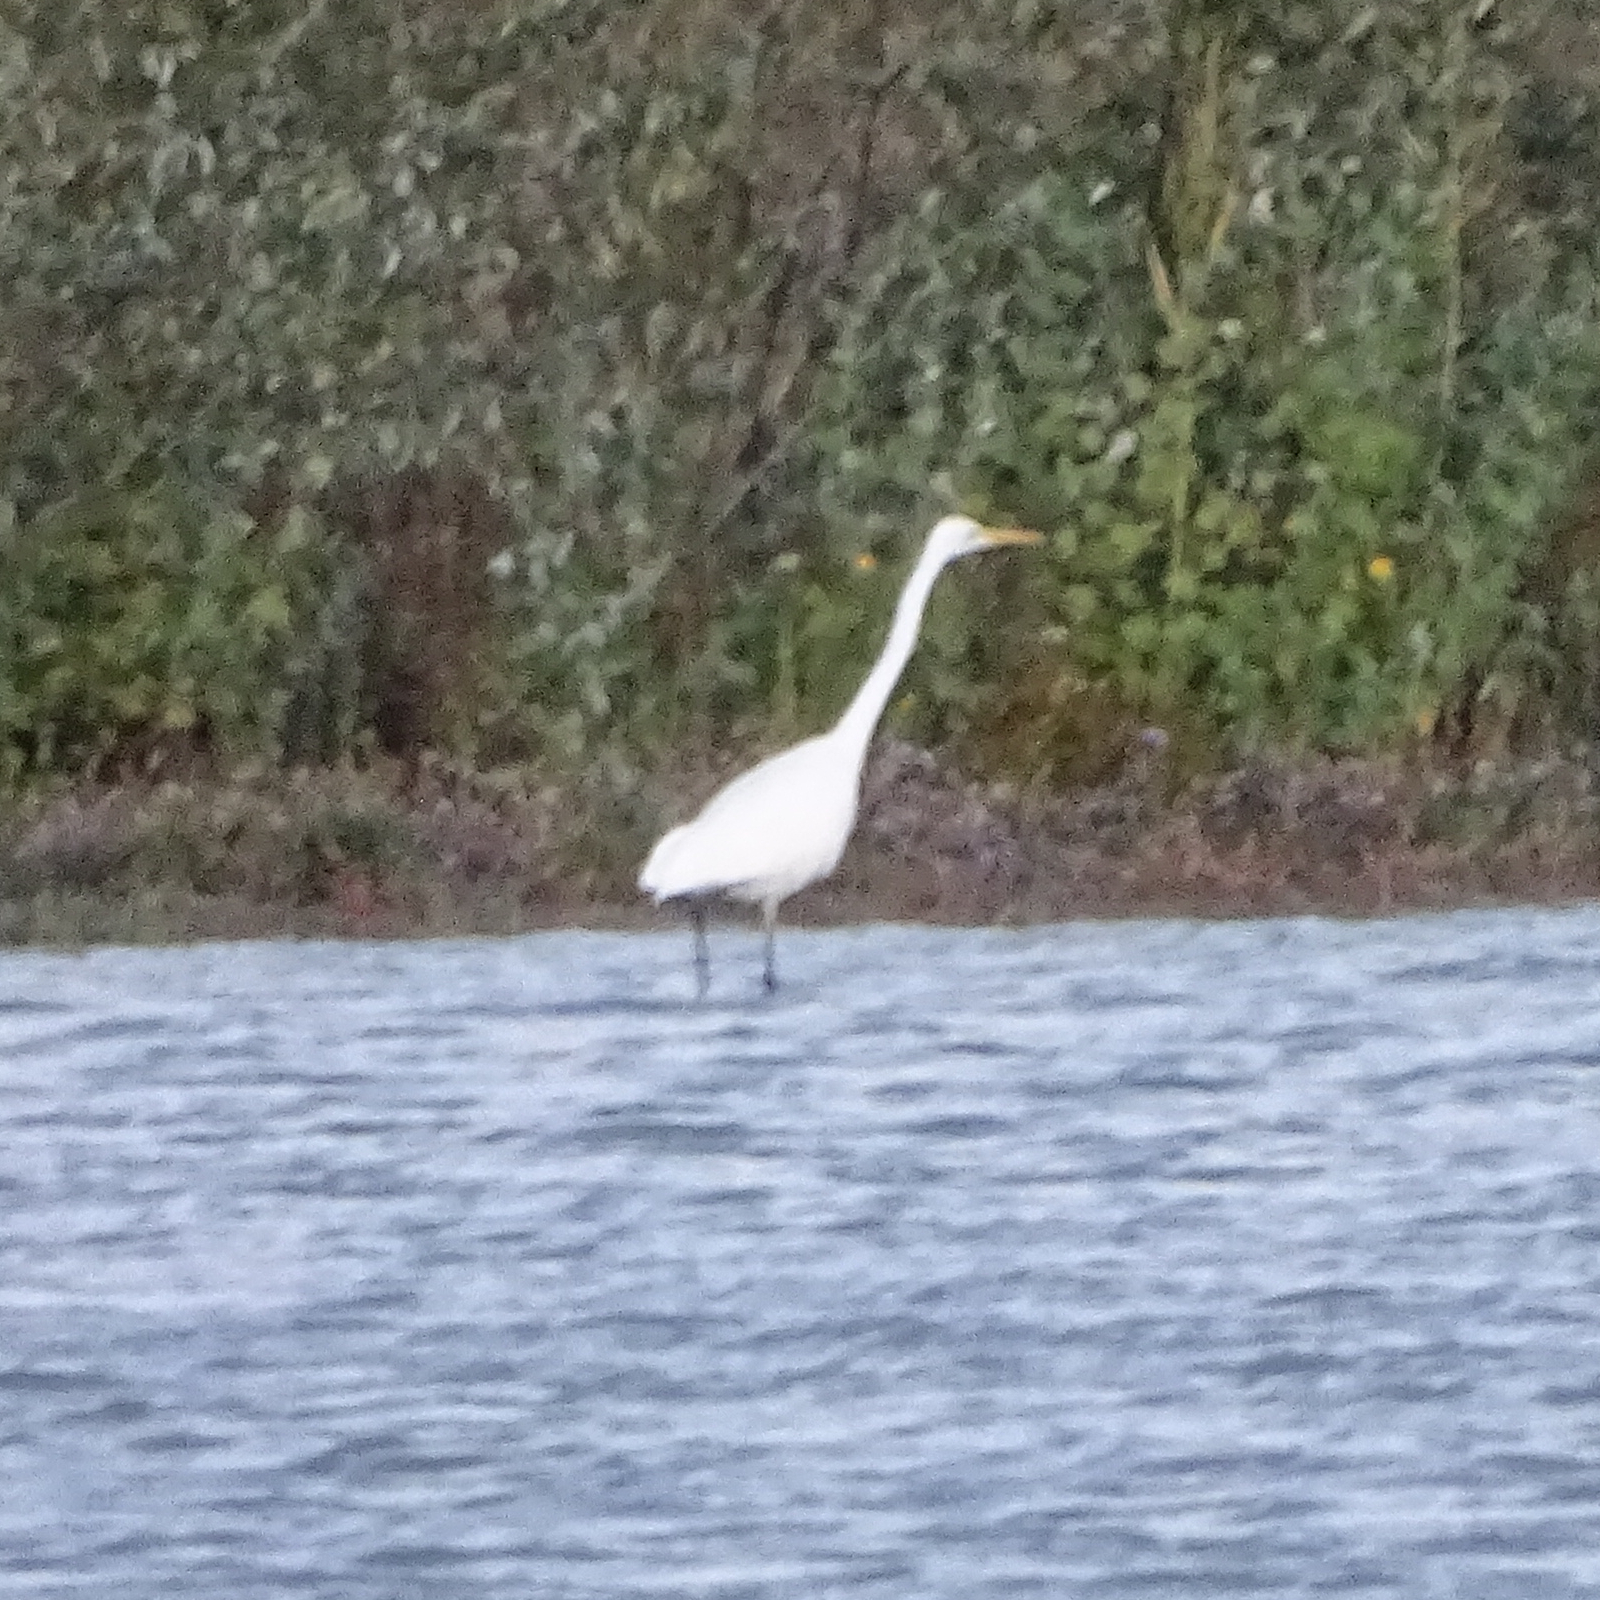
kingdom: Animalia
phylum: Chordata
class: Aves
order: Pelecaniformes
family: Ardeidae
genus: Ardea
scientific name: Ardea alba
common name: Great egret
